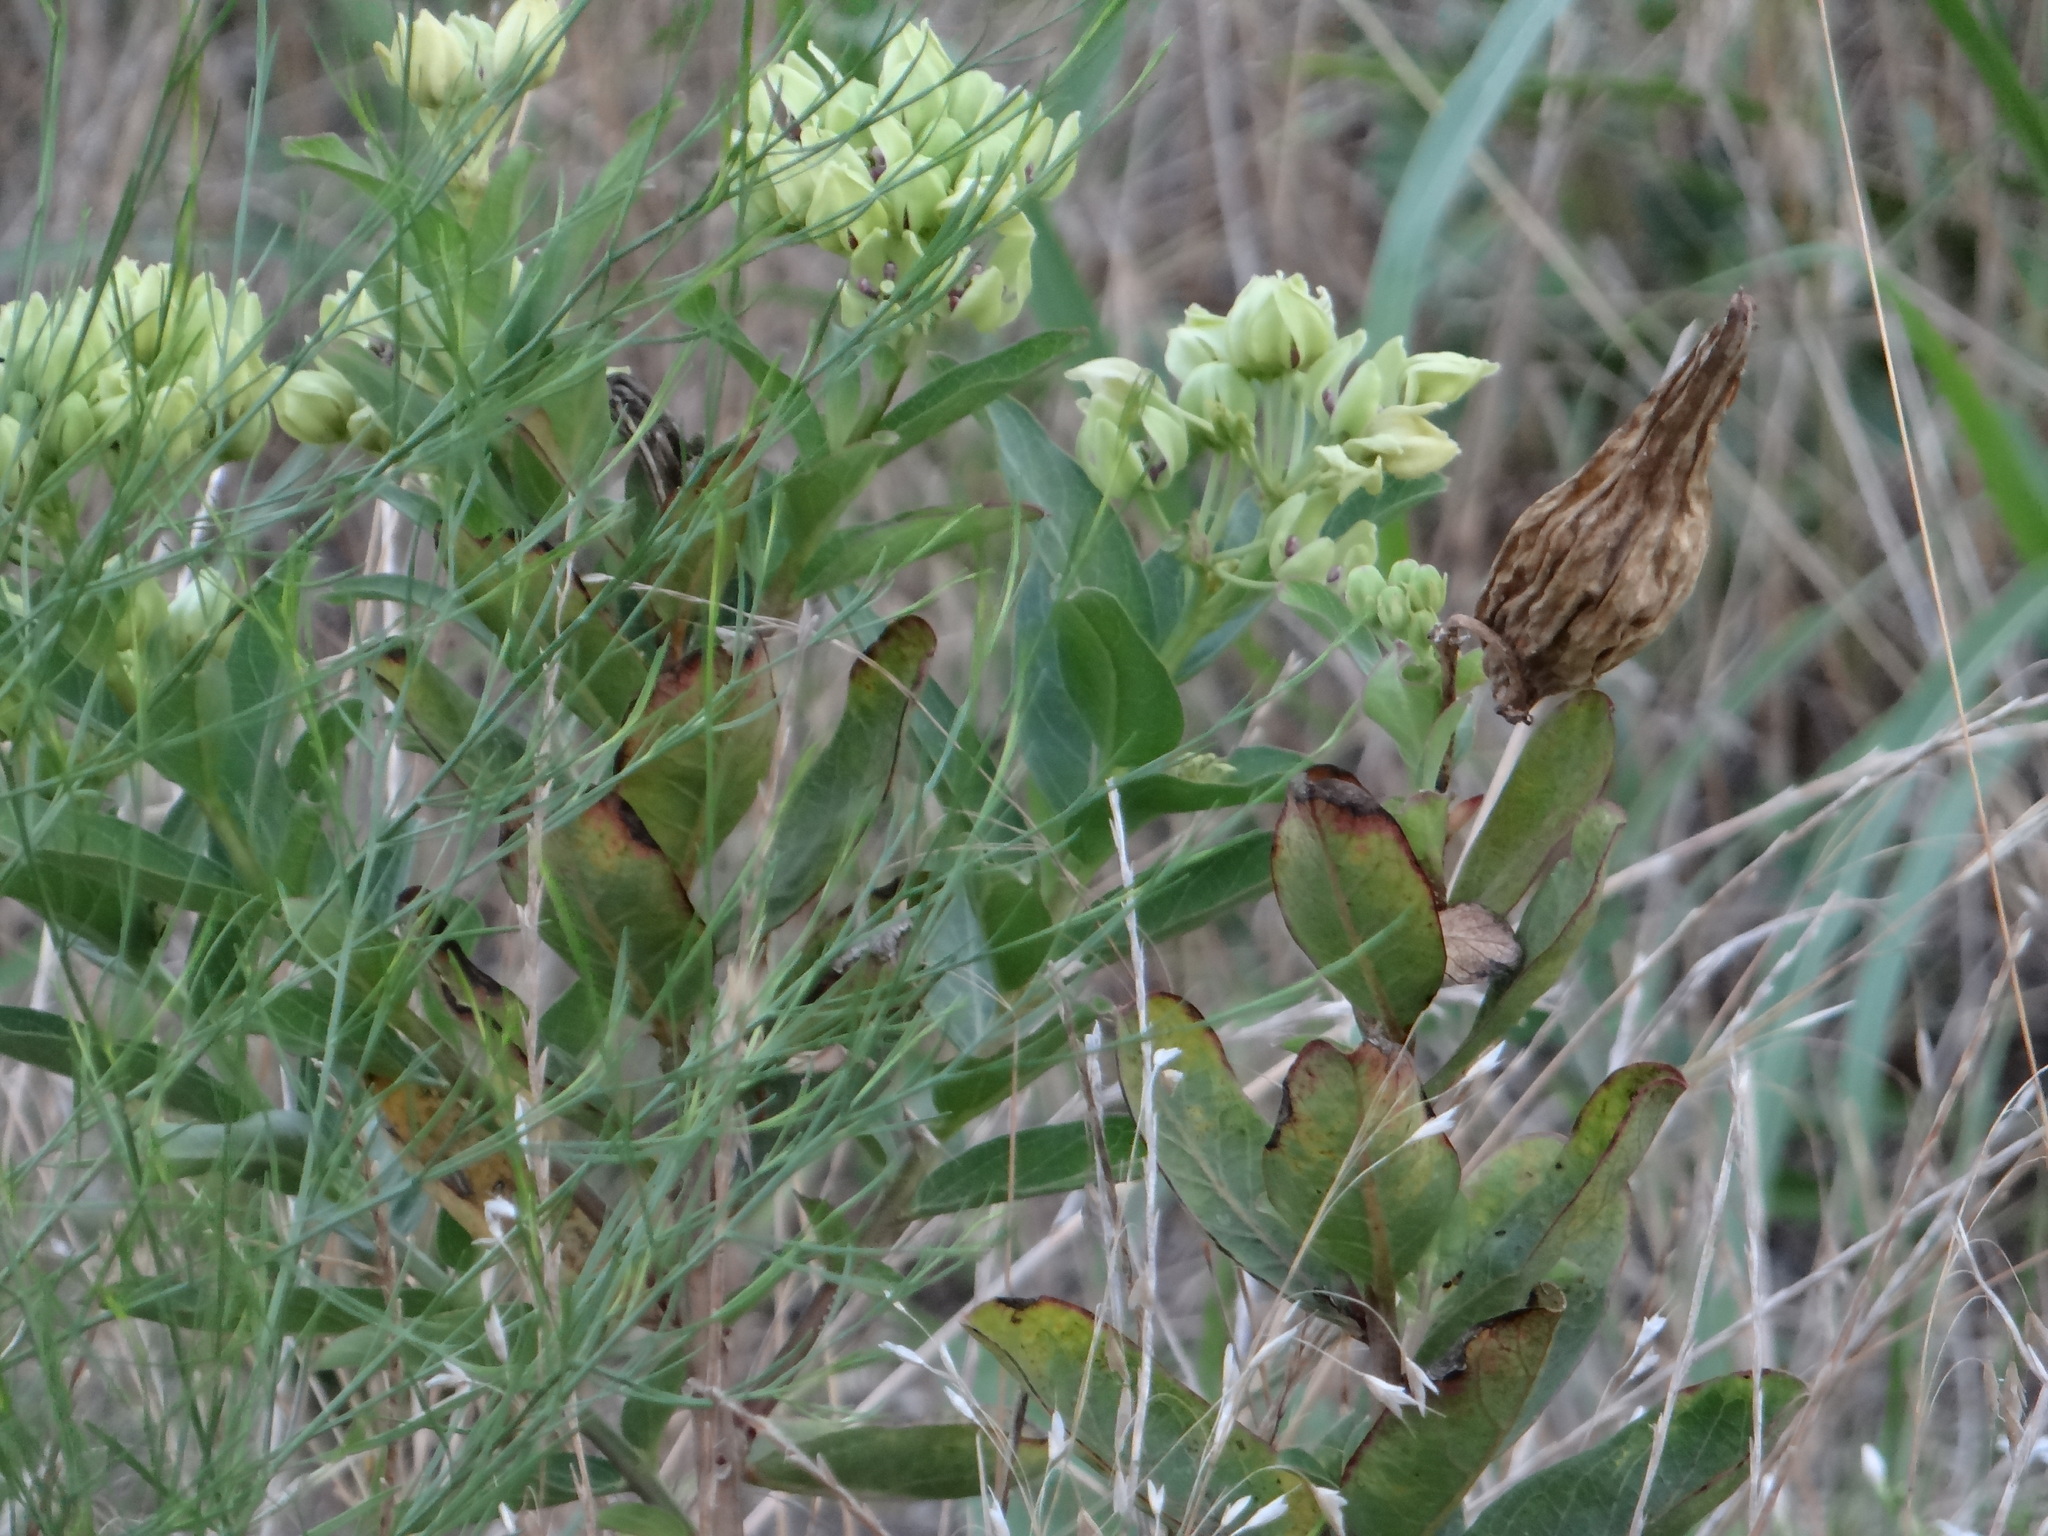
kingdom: Plantae
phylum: Tracheophyta
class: Magnoliopsida
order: Gentianales
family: Apocynaceae
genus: Asclepias
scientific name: Asclepias viridis
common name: Antelope-horns
